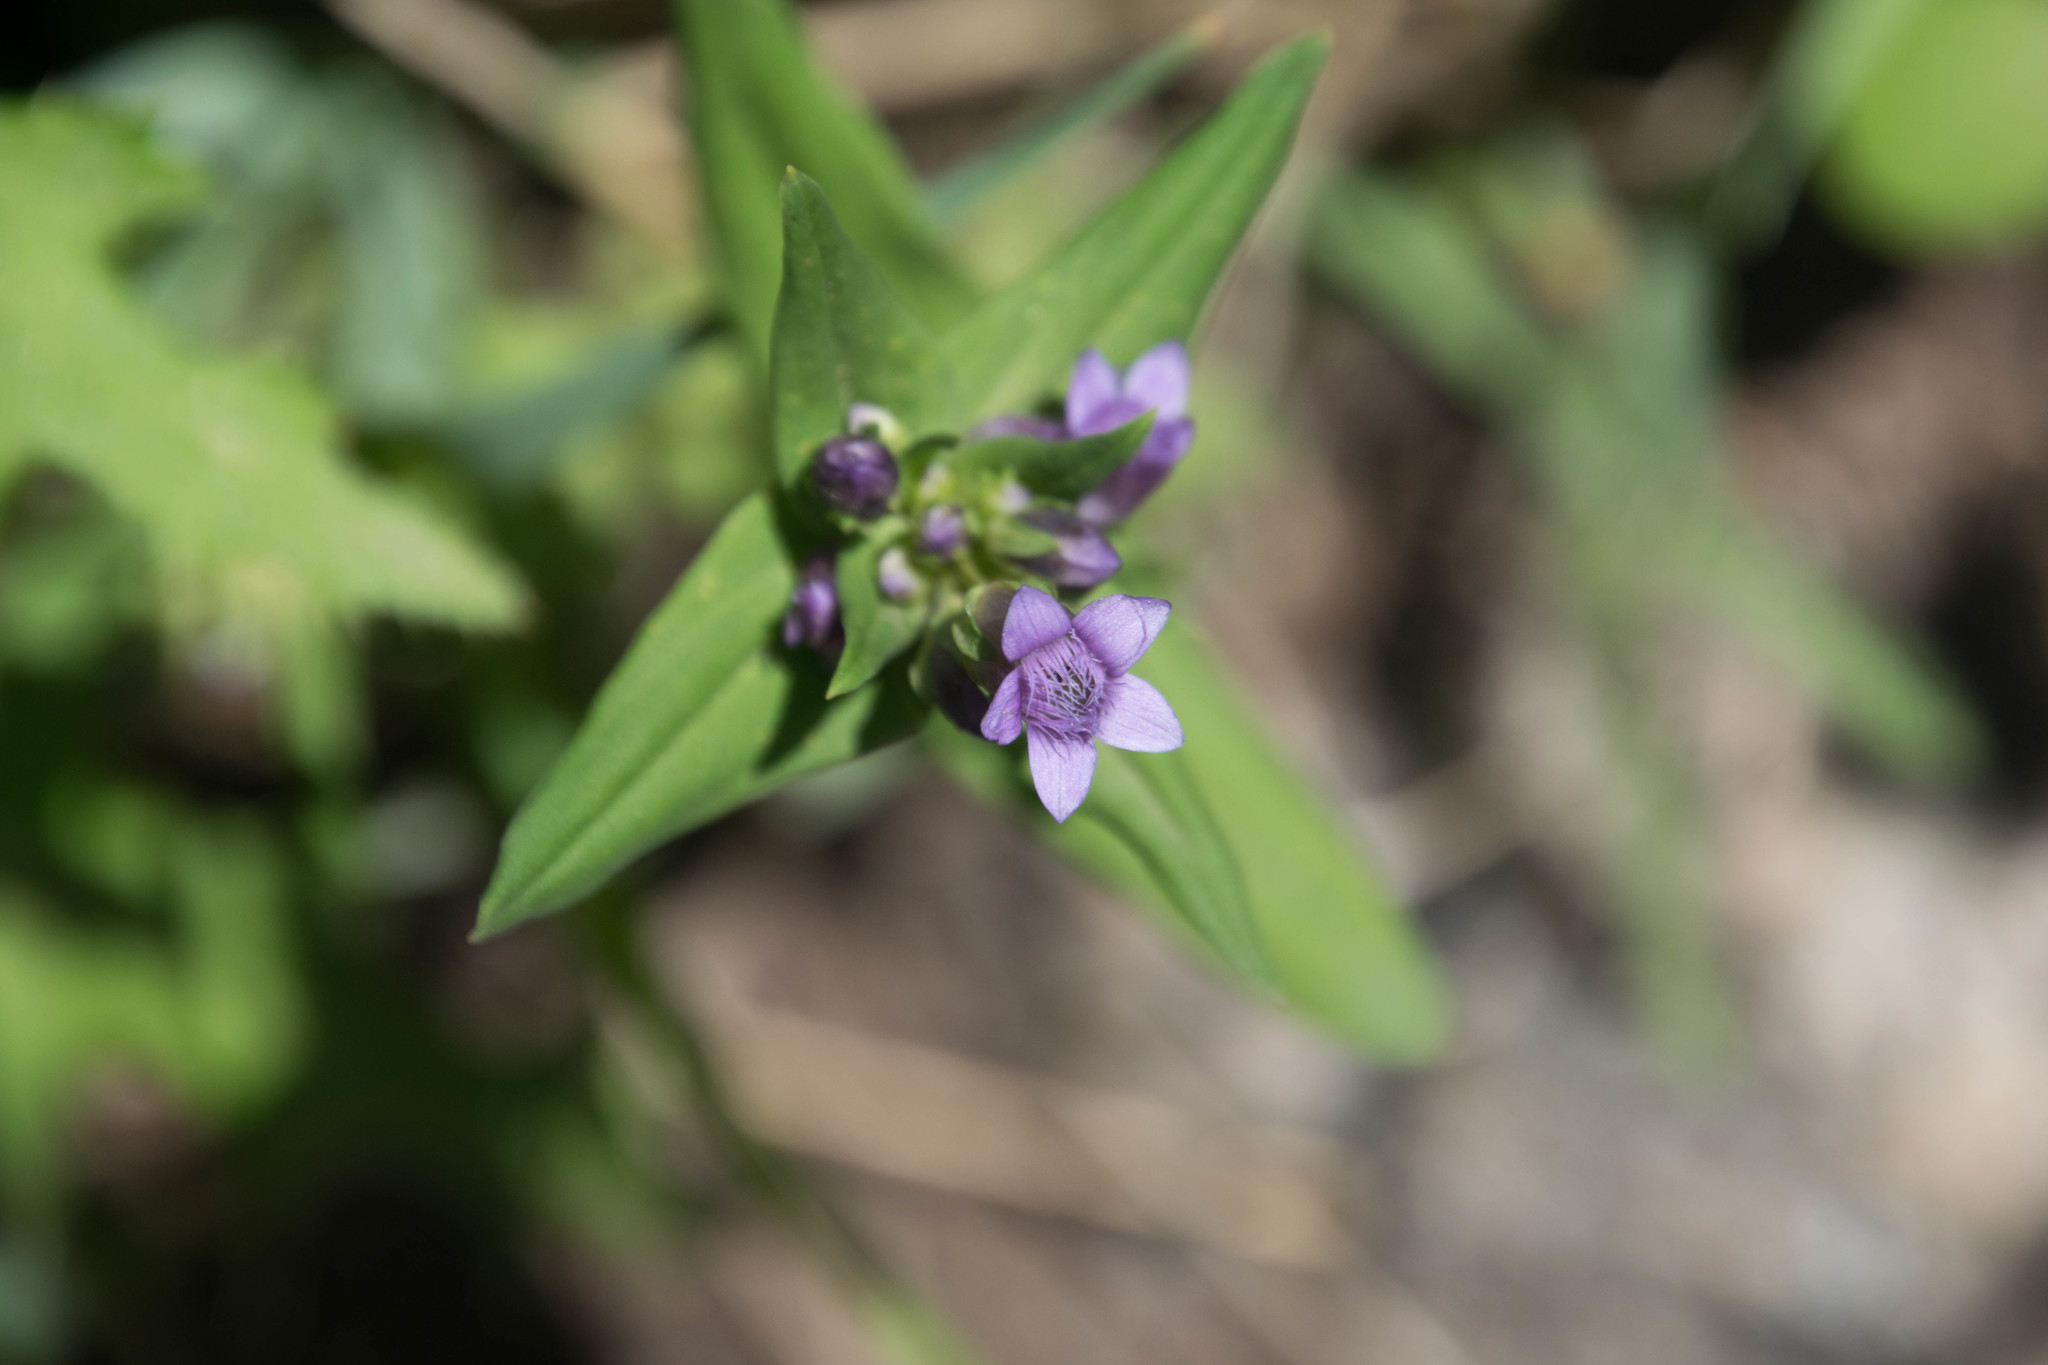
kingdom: Plantae
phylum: Tracheophyta
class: Magnoliopsida
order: Gentianales
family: Gentianaceae
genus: Gentianella
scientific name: Gentianella amarella
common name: Autumn gentian
